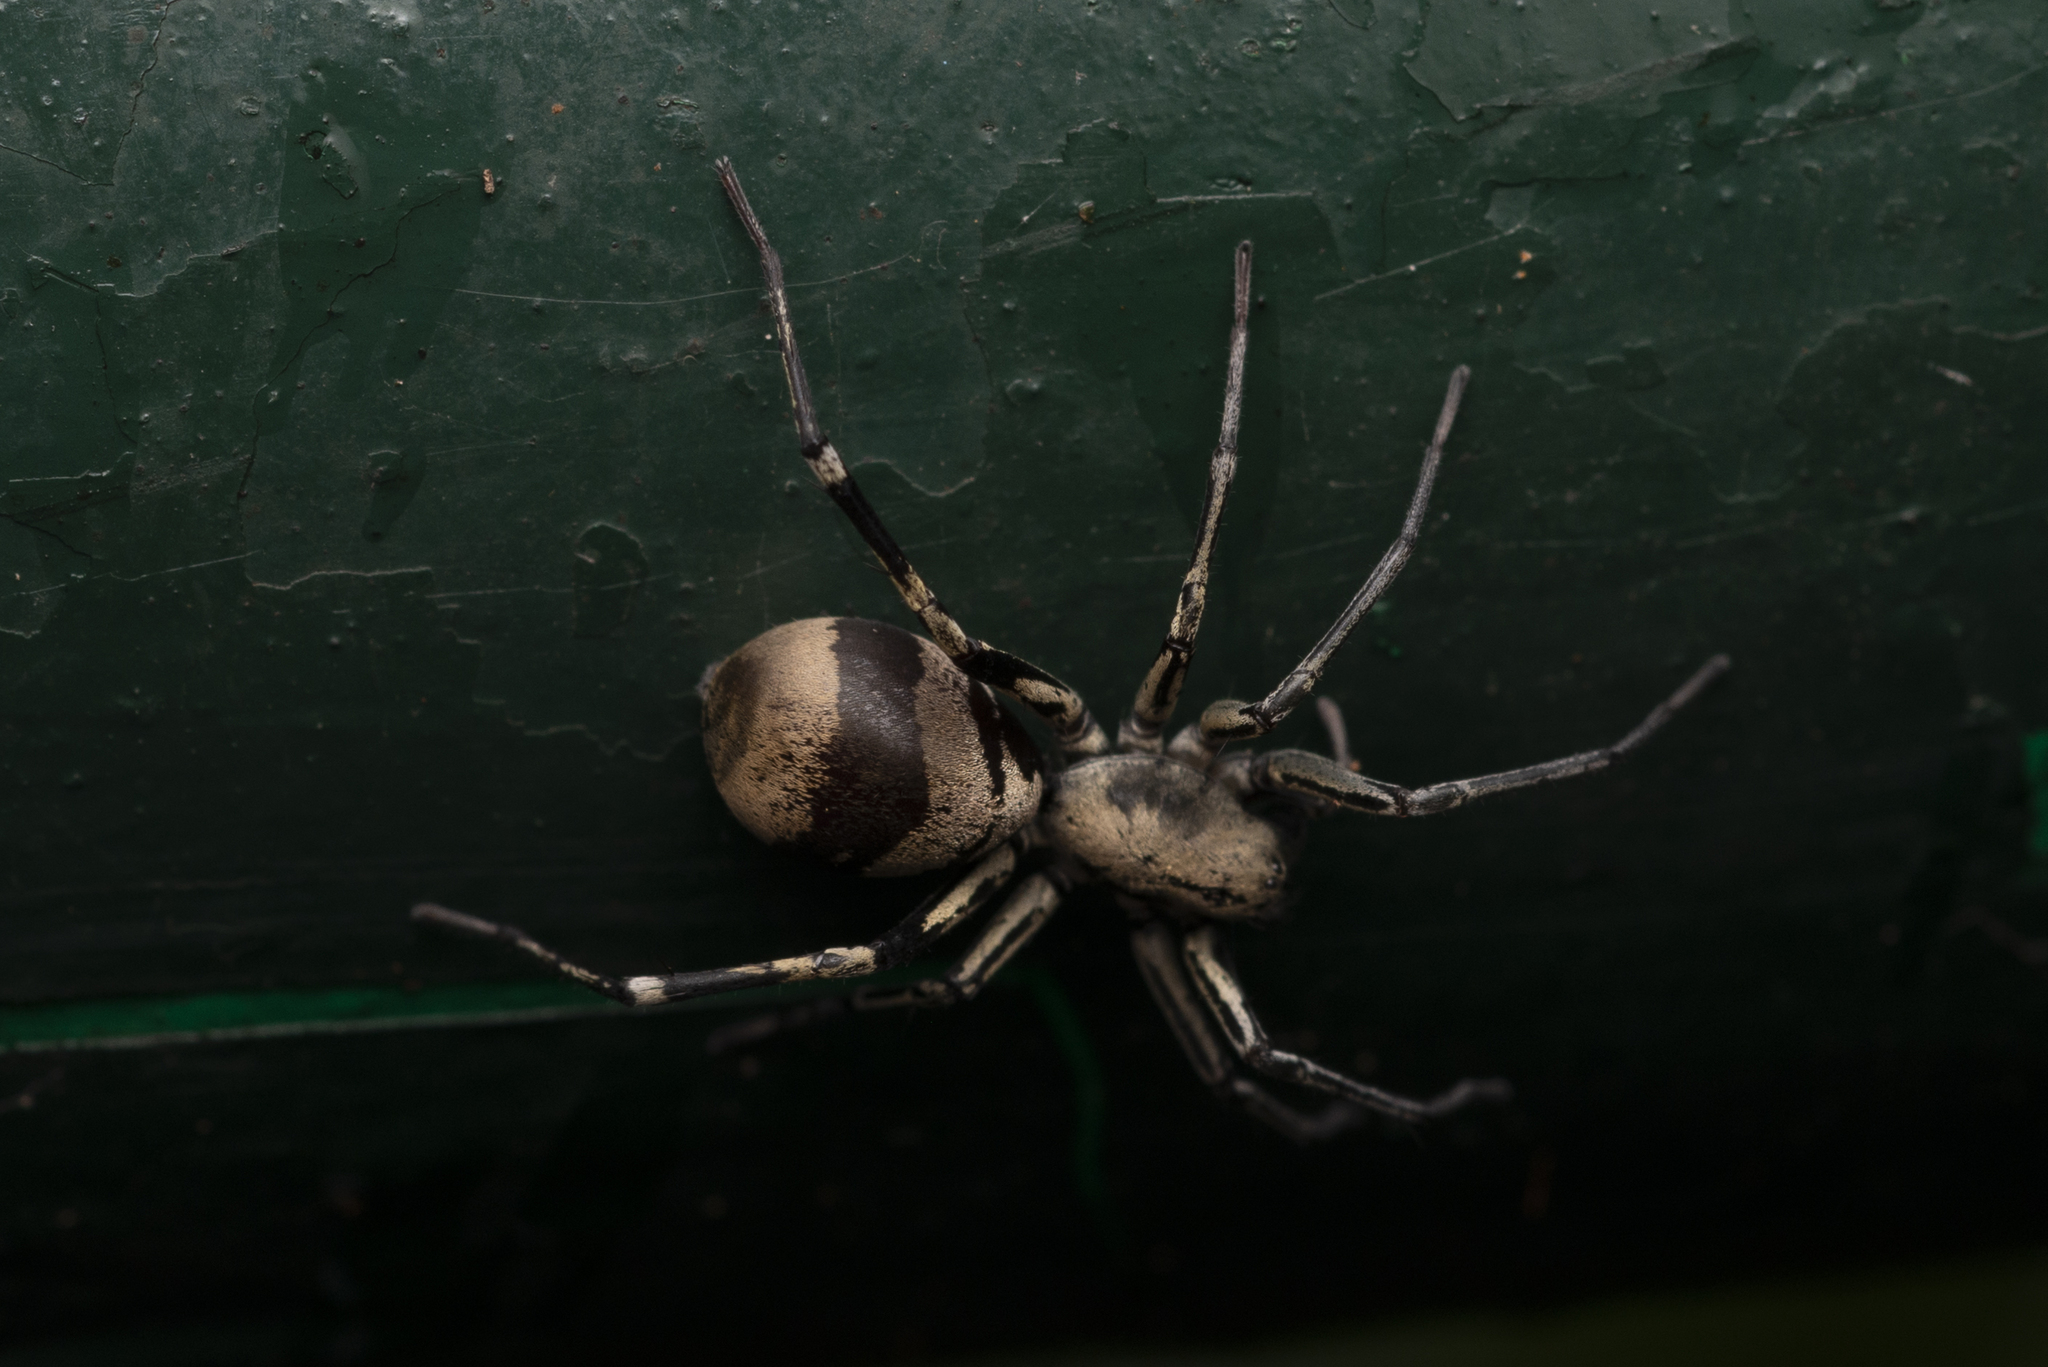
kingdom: Animalia
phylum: Arthropoda
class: Arachnida
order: Araneae
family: Corinnidae
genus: Corinnomma
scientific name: Corinnomma severum
